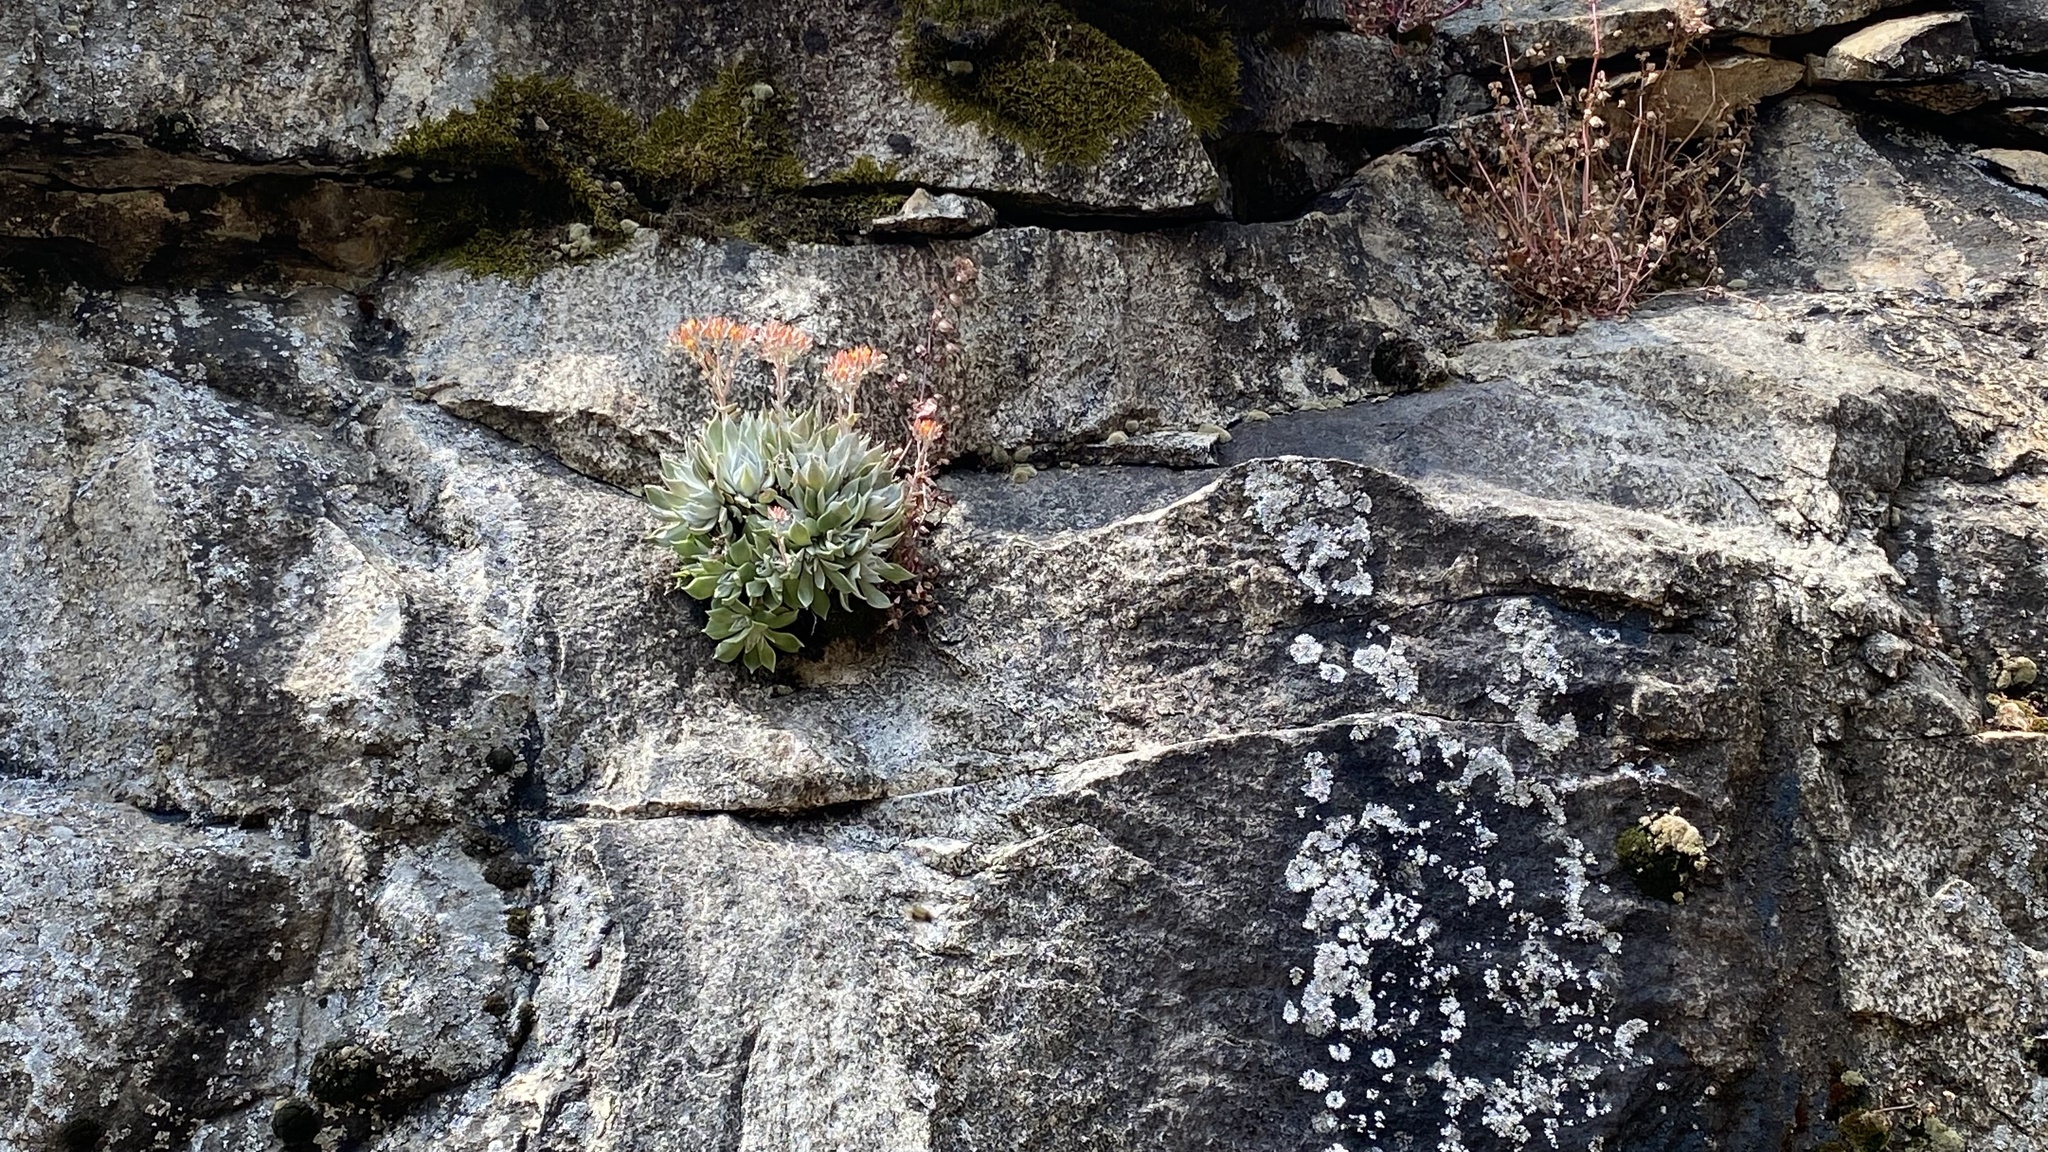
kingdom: Plantae
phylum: Tracheophyta
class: Magnoliopsida
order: Saxifragales
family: Crassulaceae
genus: Dudleya
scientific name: Dudleya cymosa
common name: Canyon dudleya
